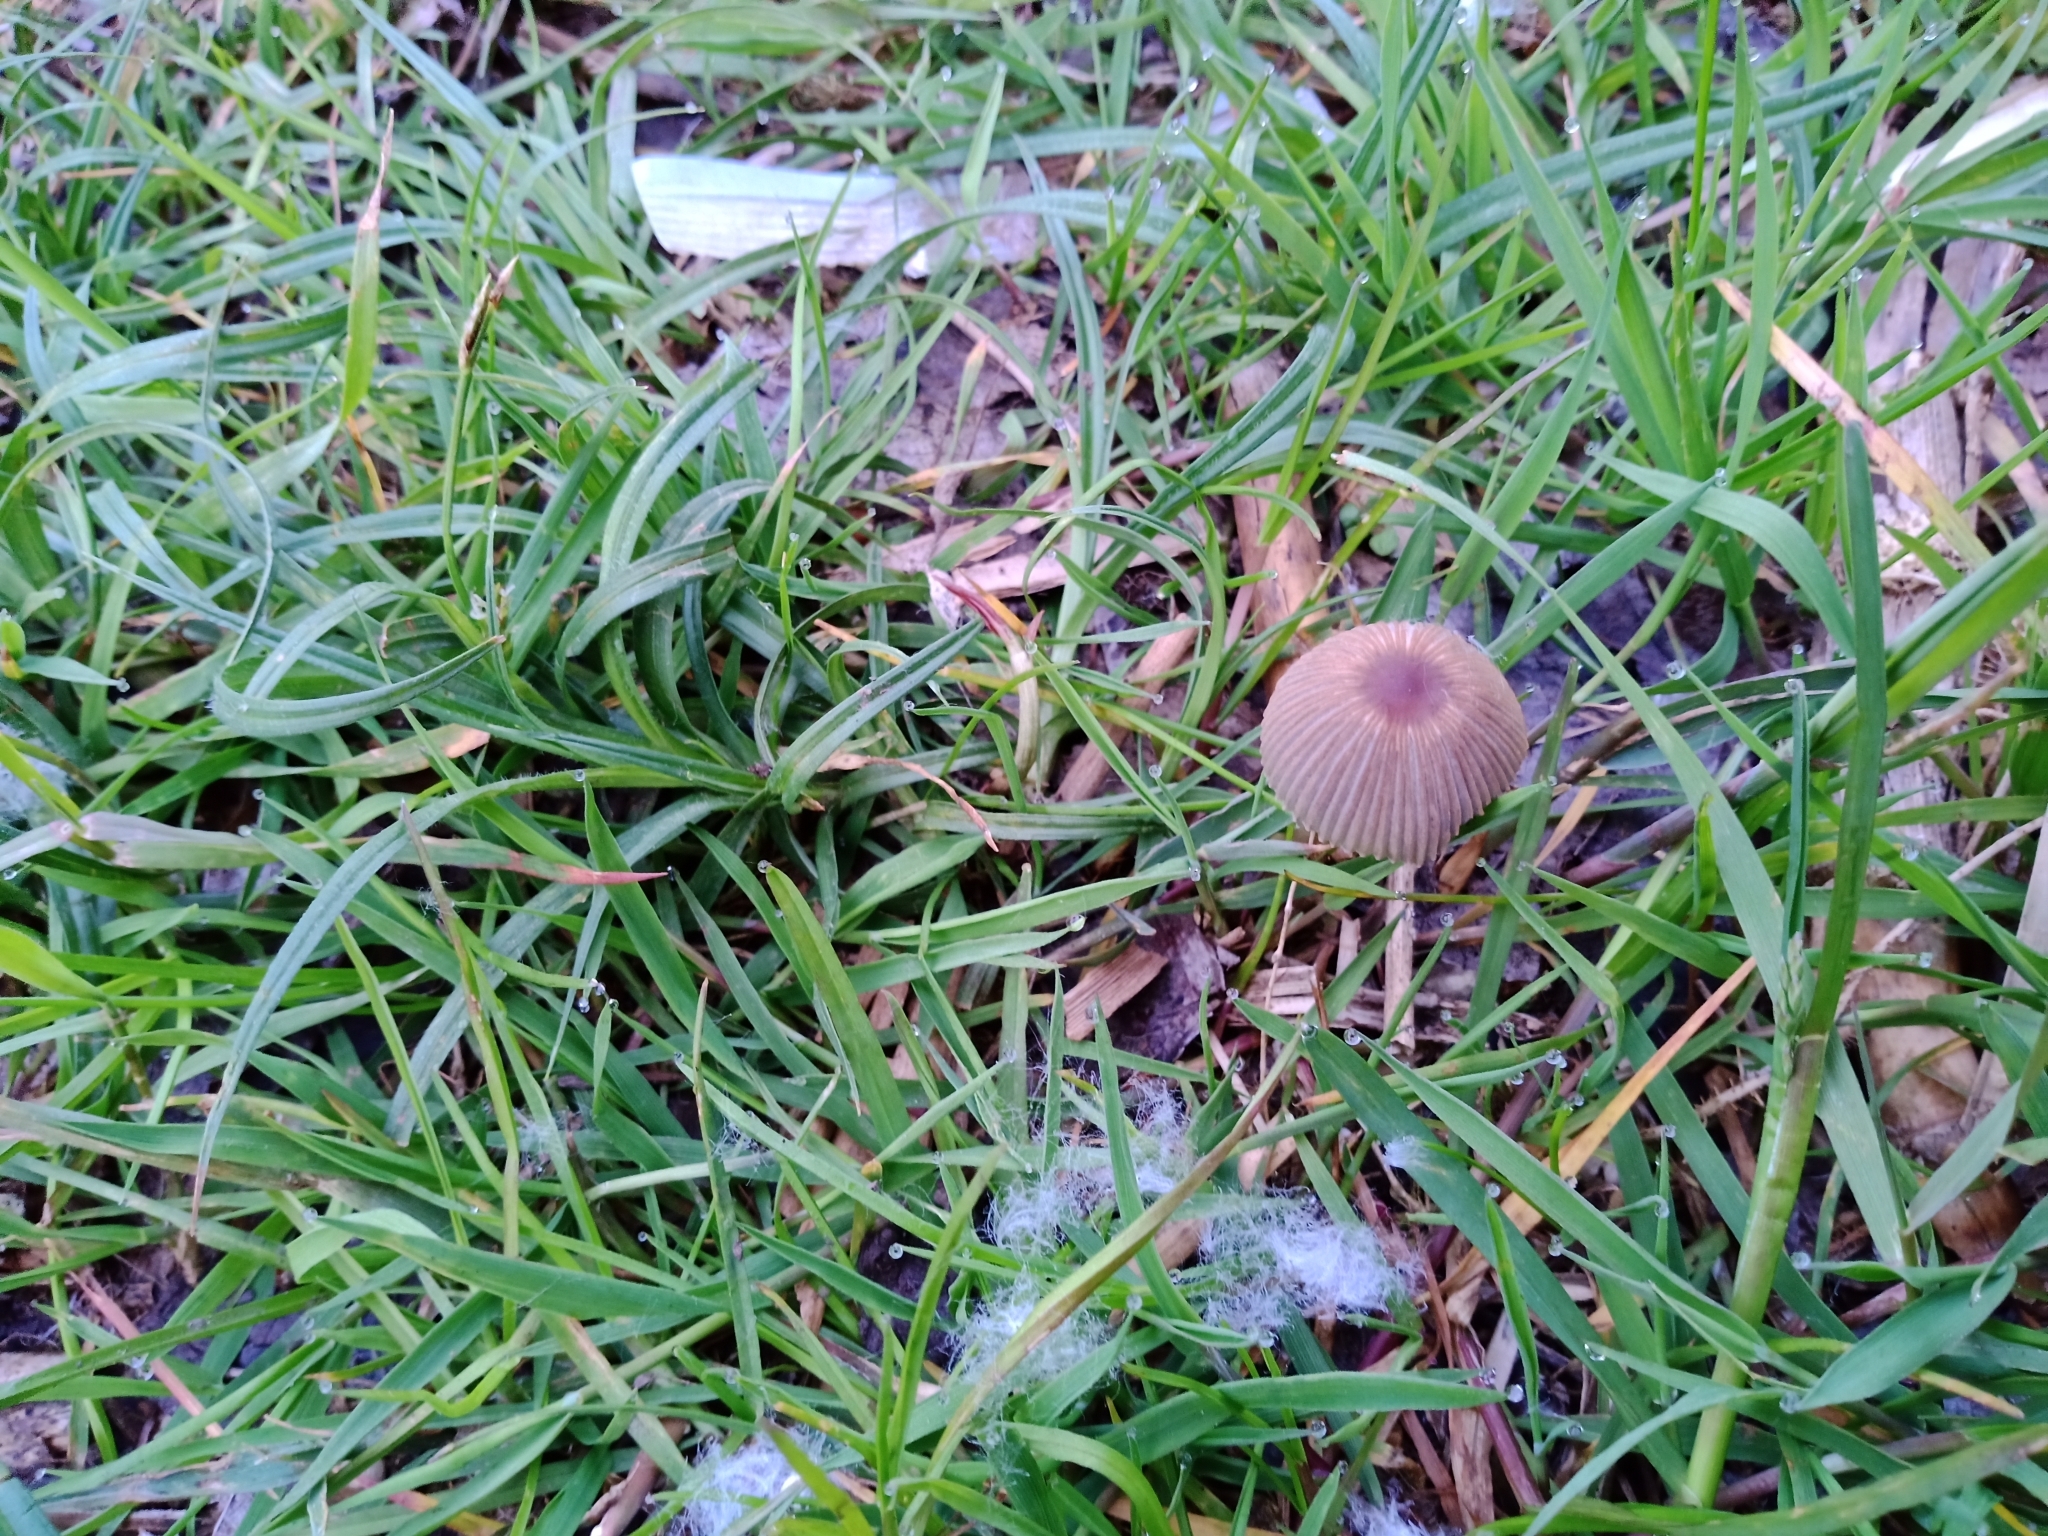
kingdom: Fungi
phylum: Basidiomycota
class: Agaricomycetes
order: Agaricales
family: Psathyrellaceae
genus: Parasola
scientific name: Parasola auricoma
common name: Goldenhaired inkcap
